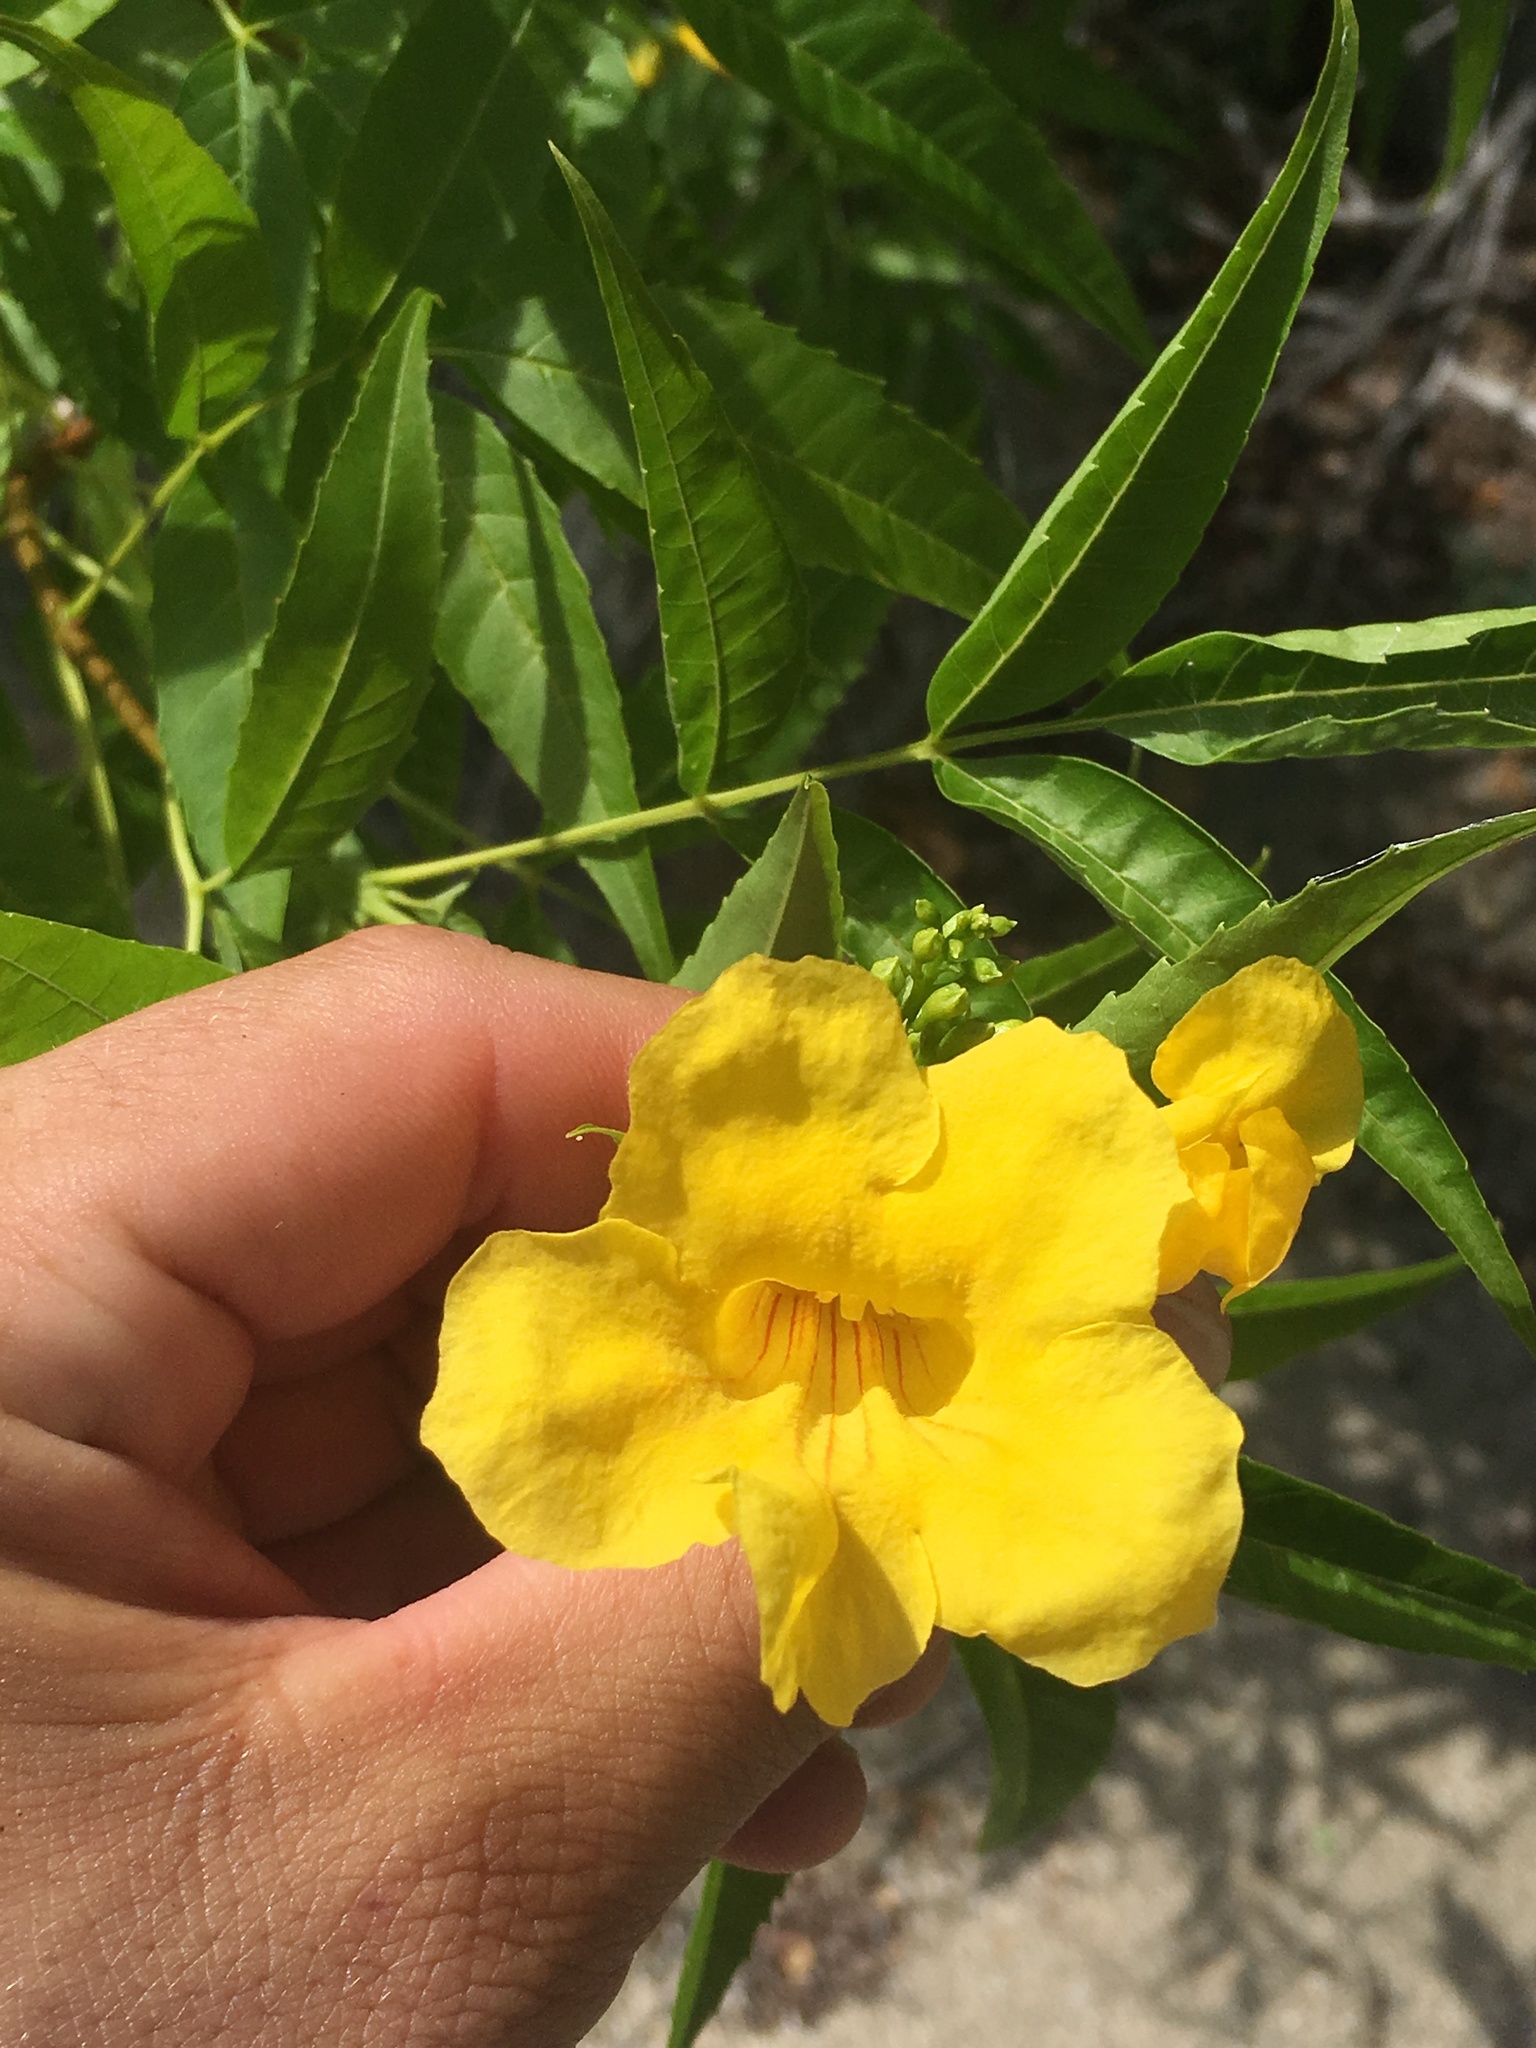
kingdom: Plantae
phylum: Tracheophyta
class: Magnoliopsida
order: Lamiales
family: Bignoniaceae
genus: Tecoma
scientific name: Tecoma stans
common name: Yellow trumpetbush
